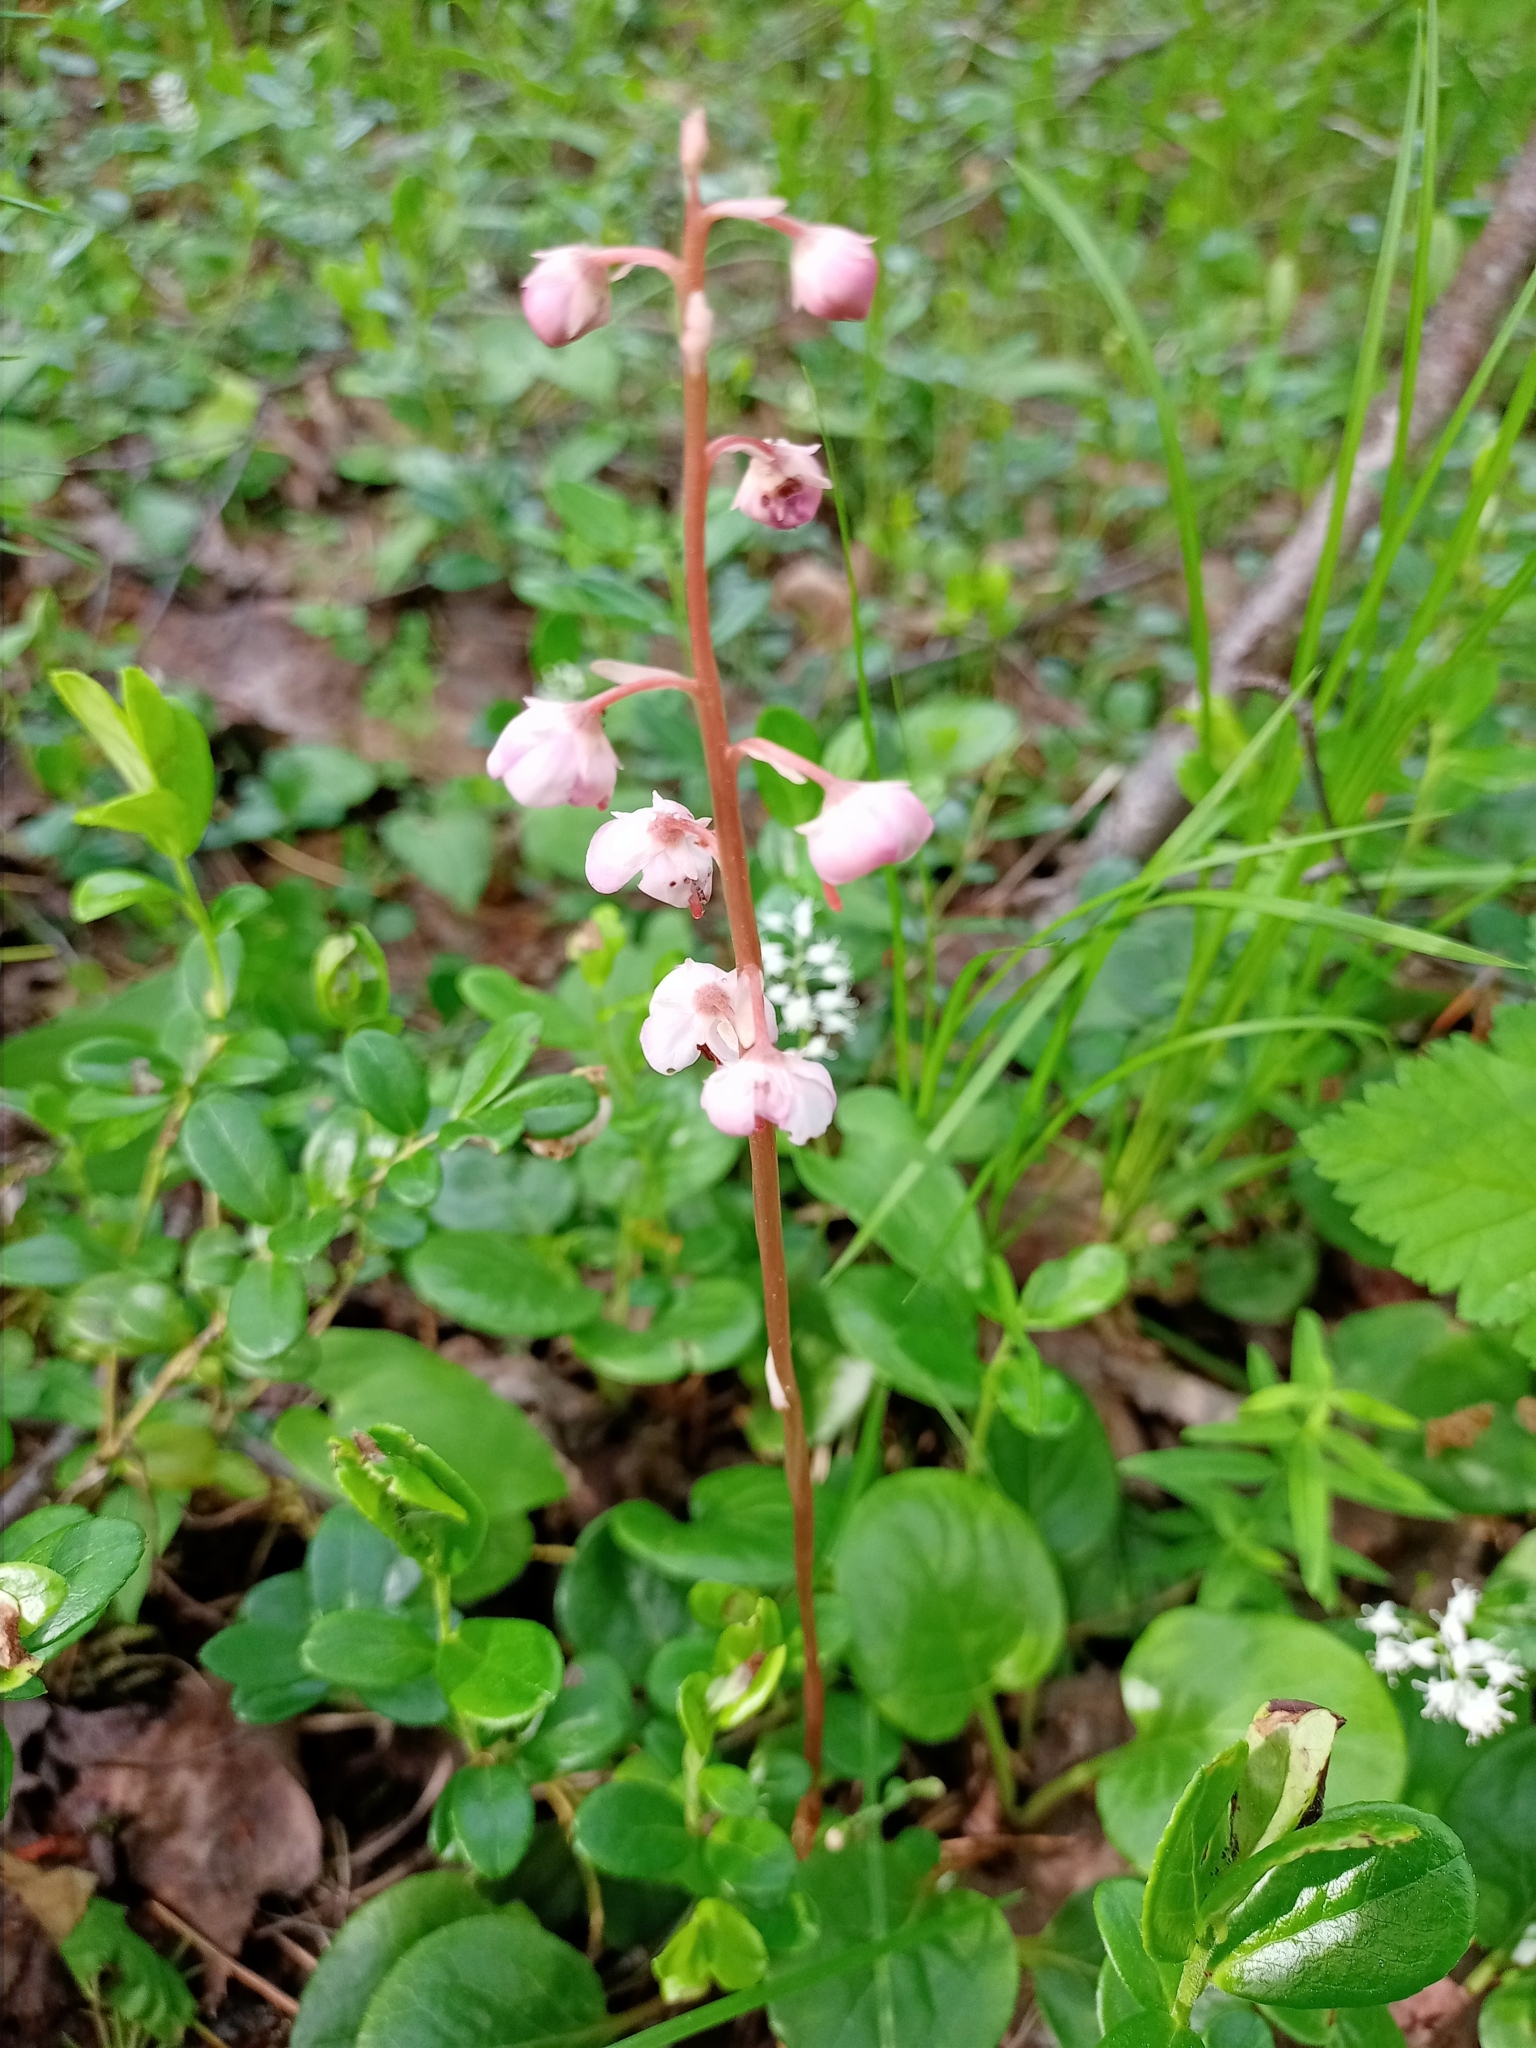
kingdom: Plantae
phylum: Tracheophyta
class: Magnoliopsida
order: Ericales
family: Ericaceae
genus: Pyrola
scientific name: Pyrola asarifolia
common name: Bog wintergreen
